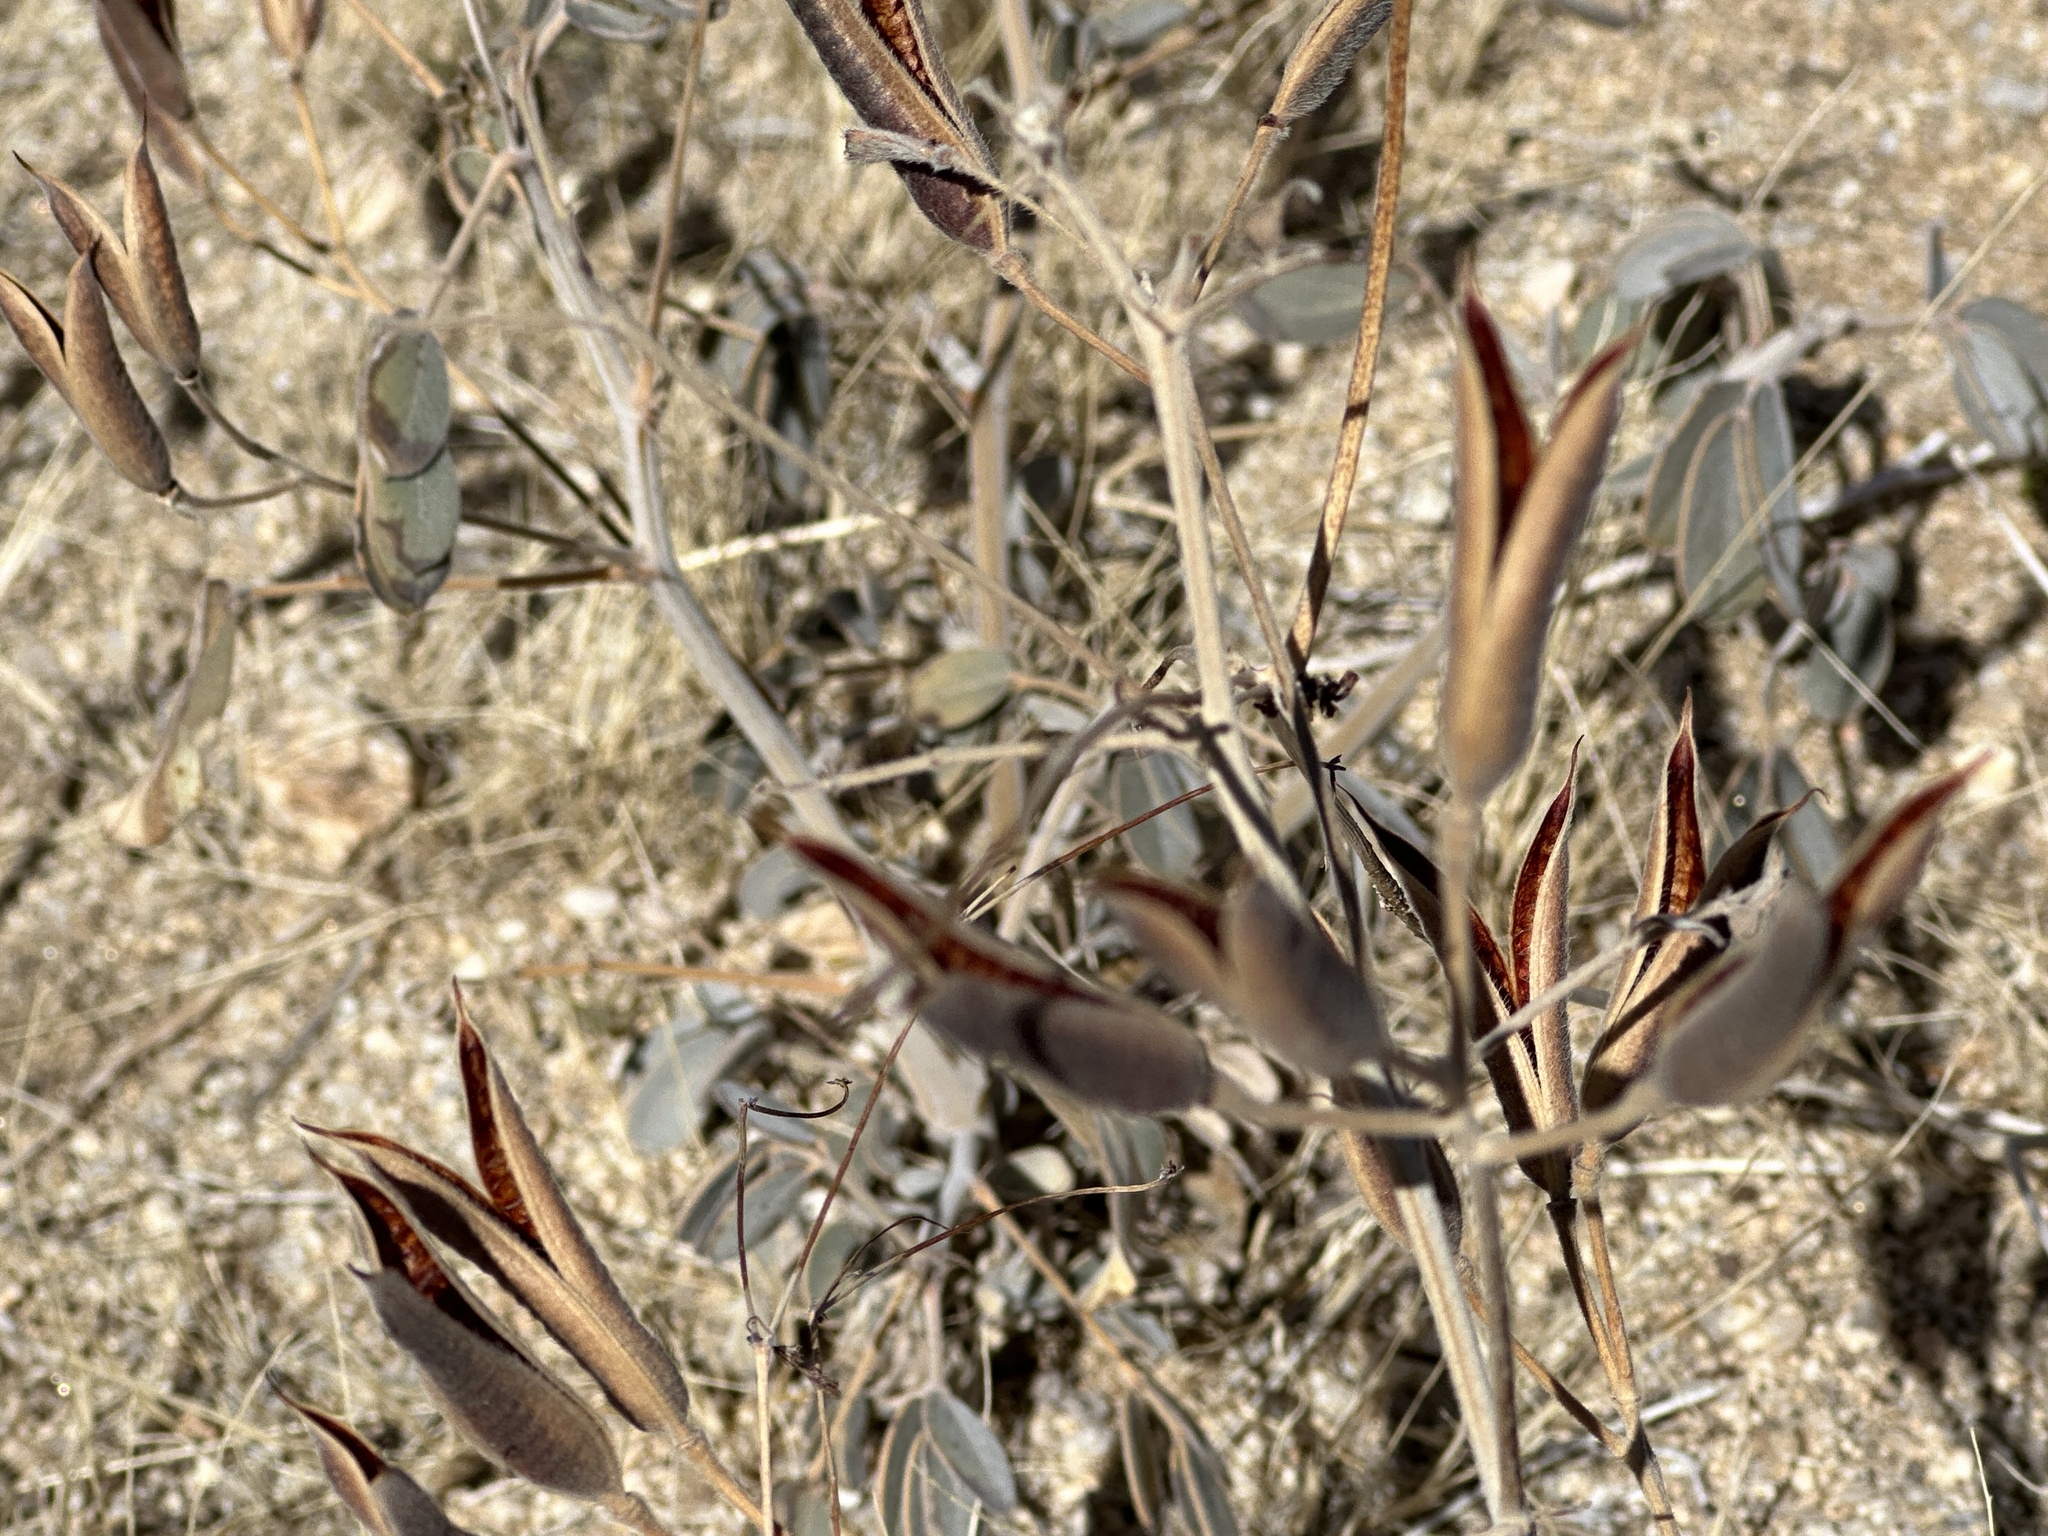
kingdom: Plantae
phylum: Tracheophyta
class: Magnoliopsida
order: Fabales
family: Fabaceae
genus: Senna
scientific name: Senna covesii
